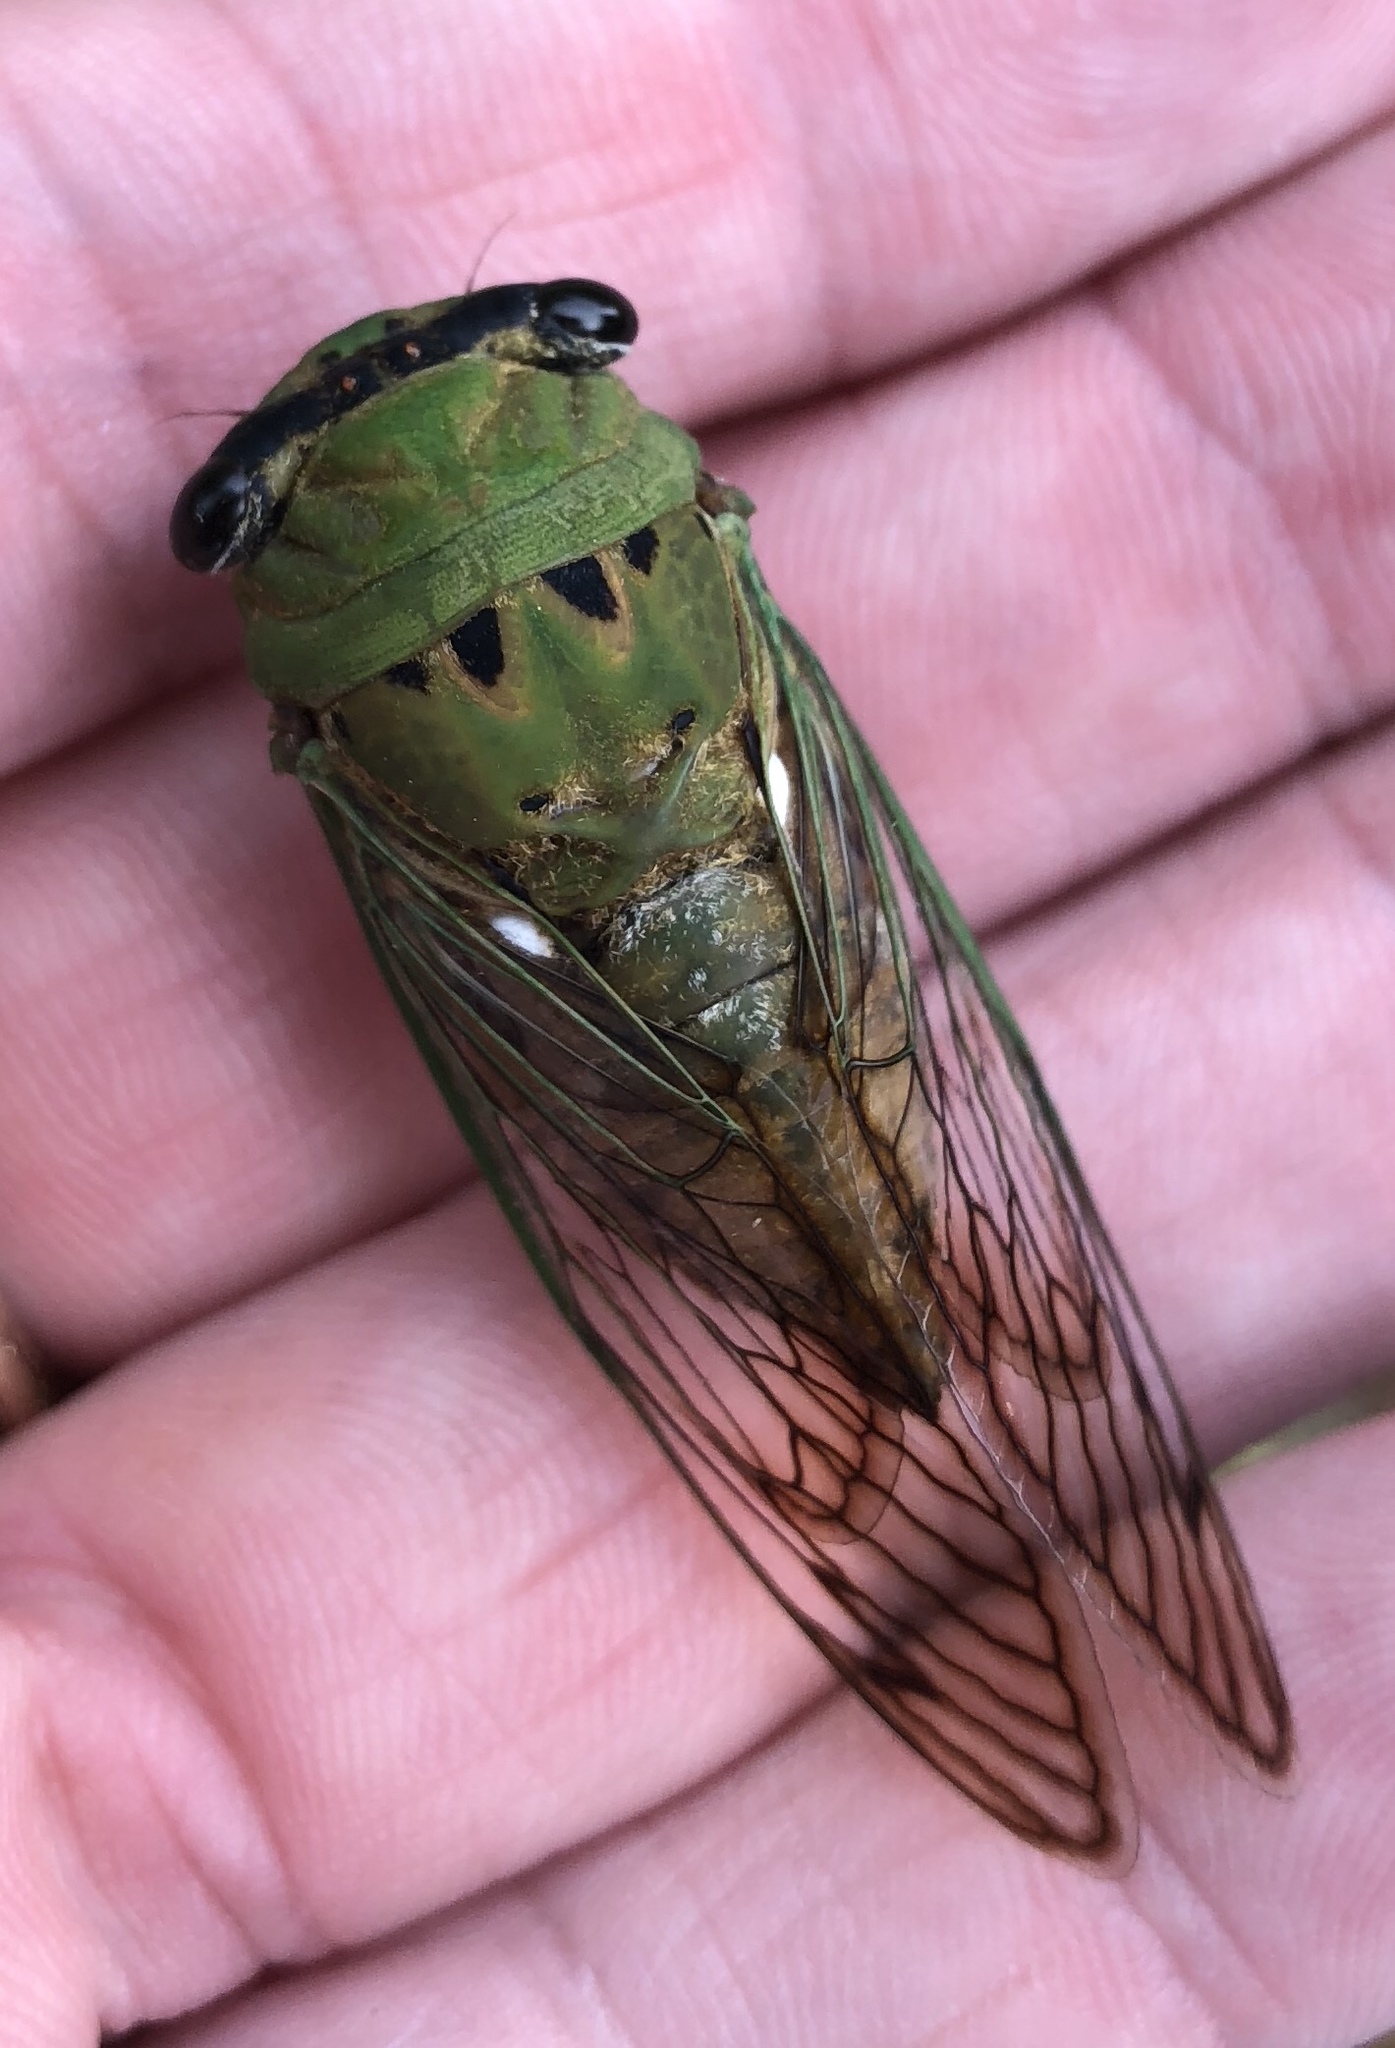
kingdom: Animalia
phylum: Arthropoda
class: Insecta
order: Hemiptera
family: Cicadidae
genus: Neotibicen
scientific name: Neotibicen superbus
